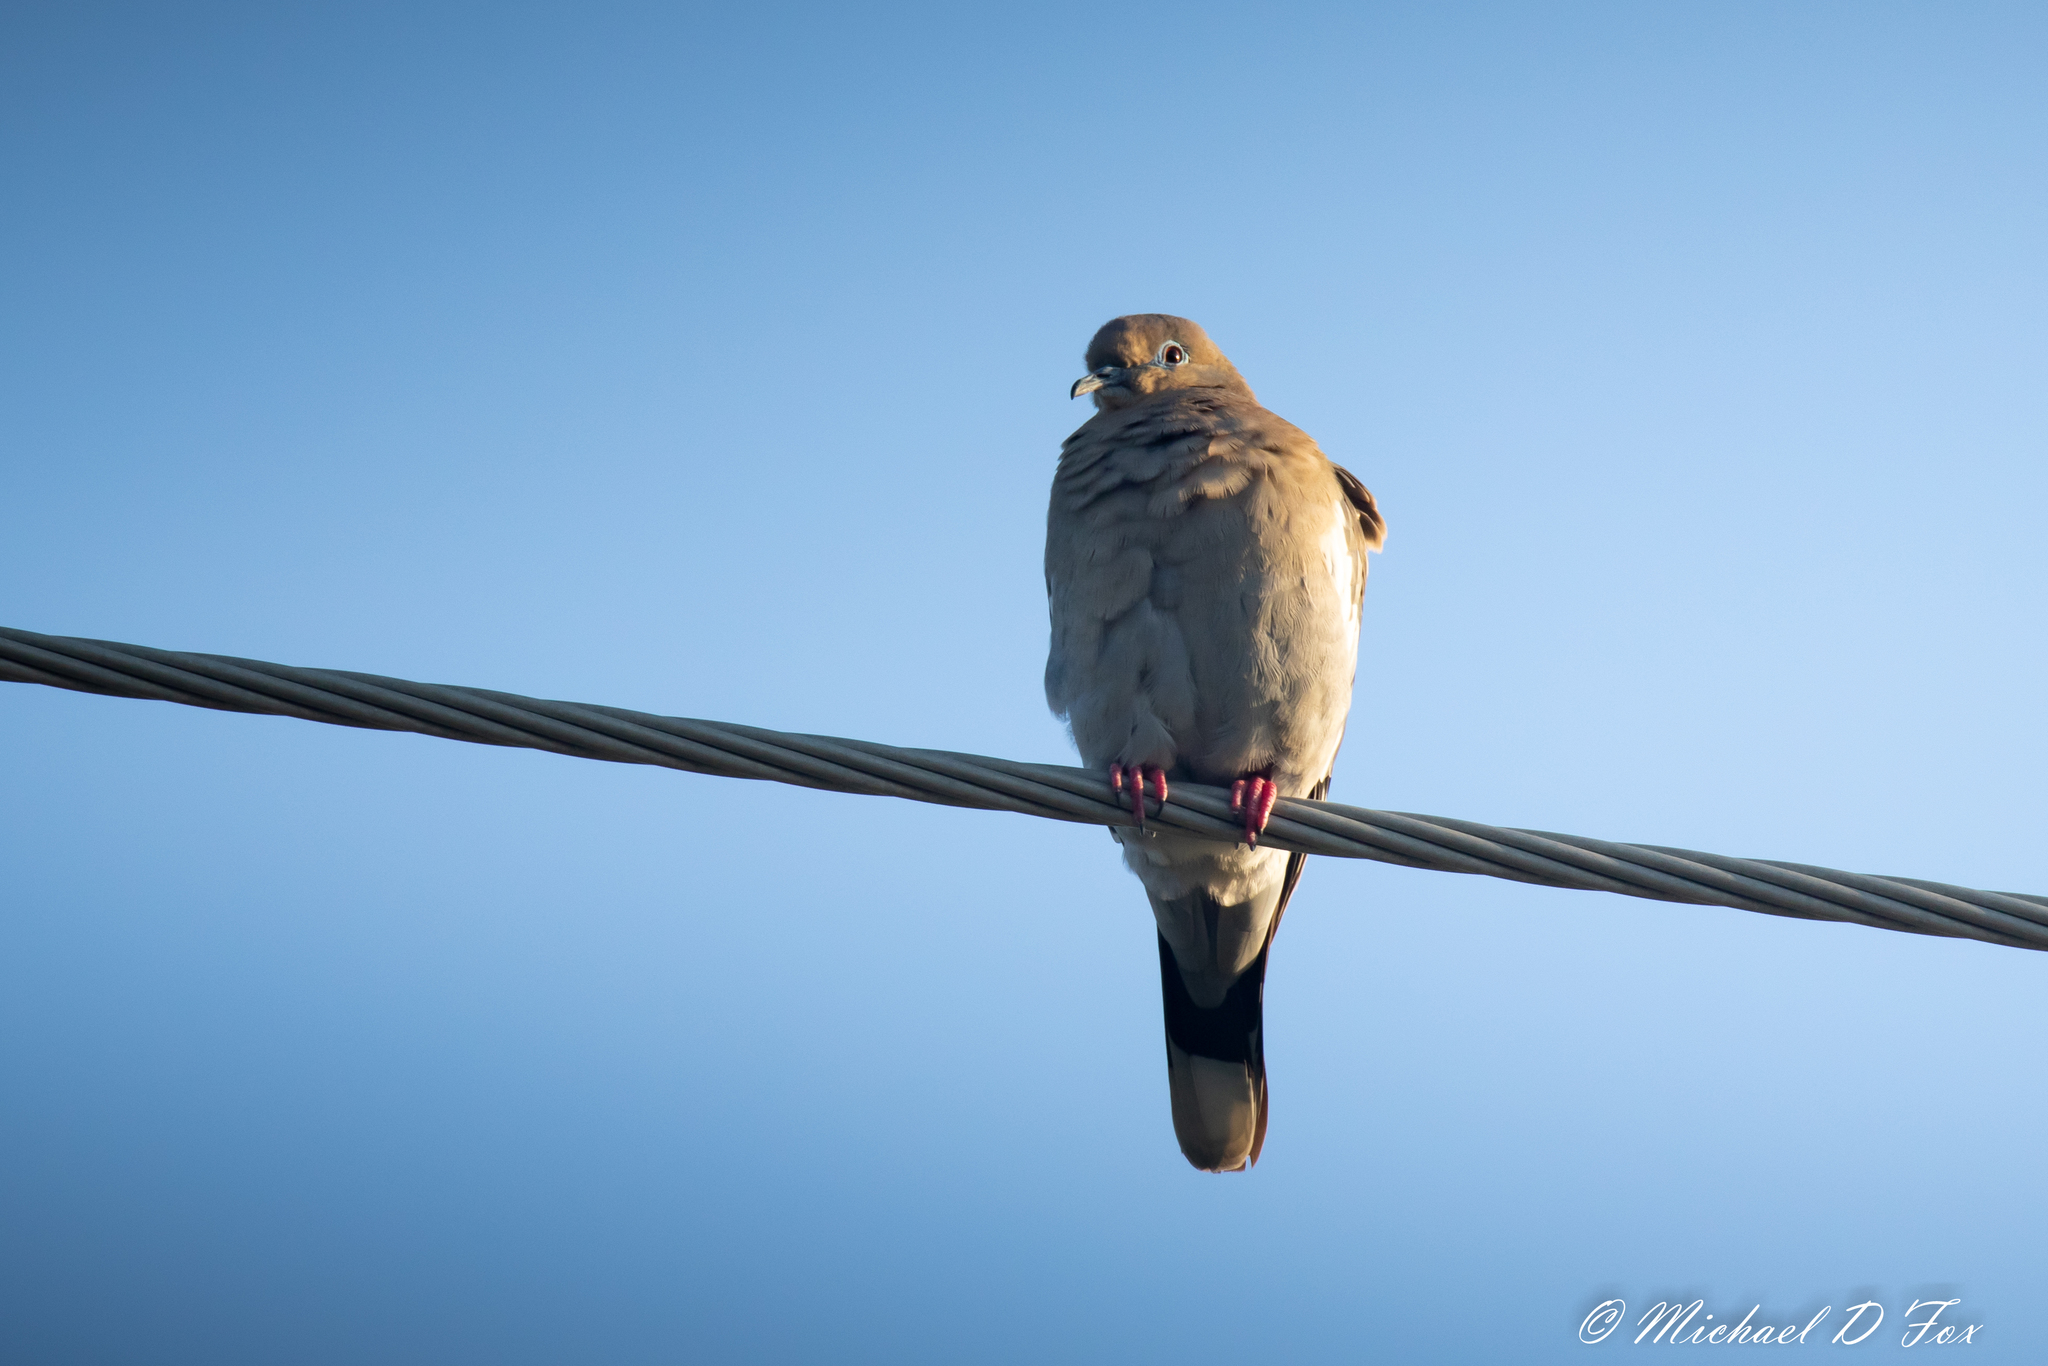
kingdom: Animalia
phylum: Chordata
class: Aves
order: Columbiformes
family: Columbidae
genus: Zenaida
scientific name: Zenaida asiatica
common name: White-winged dove
